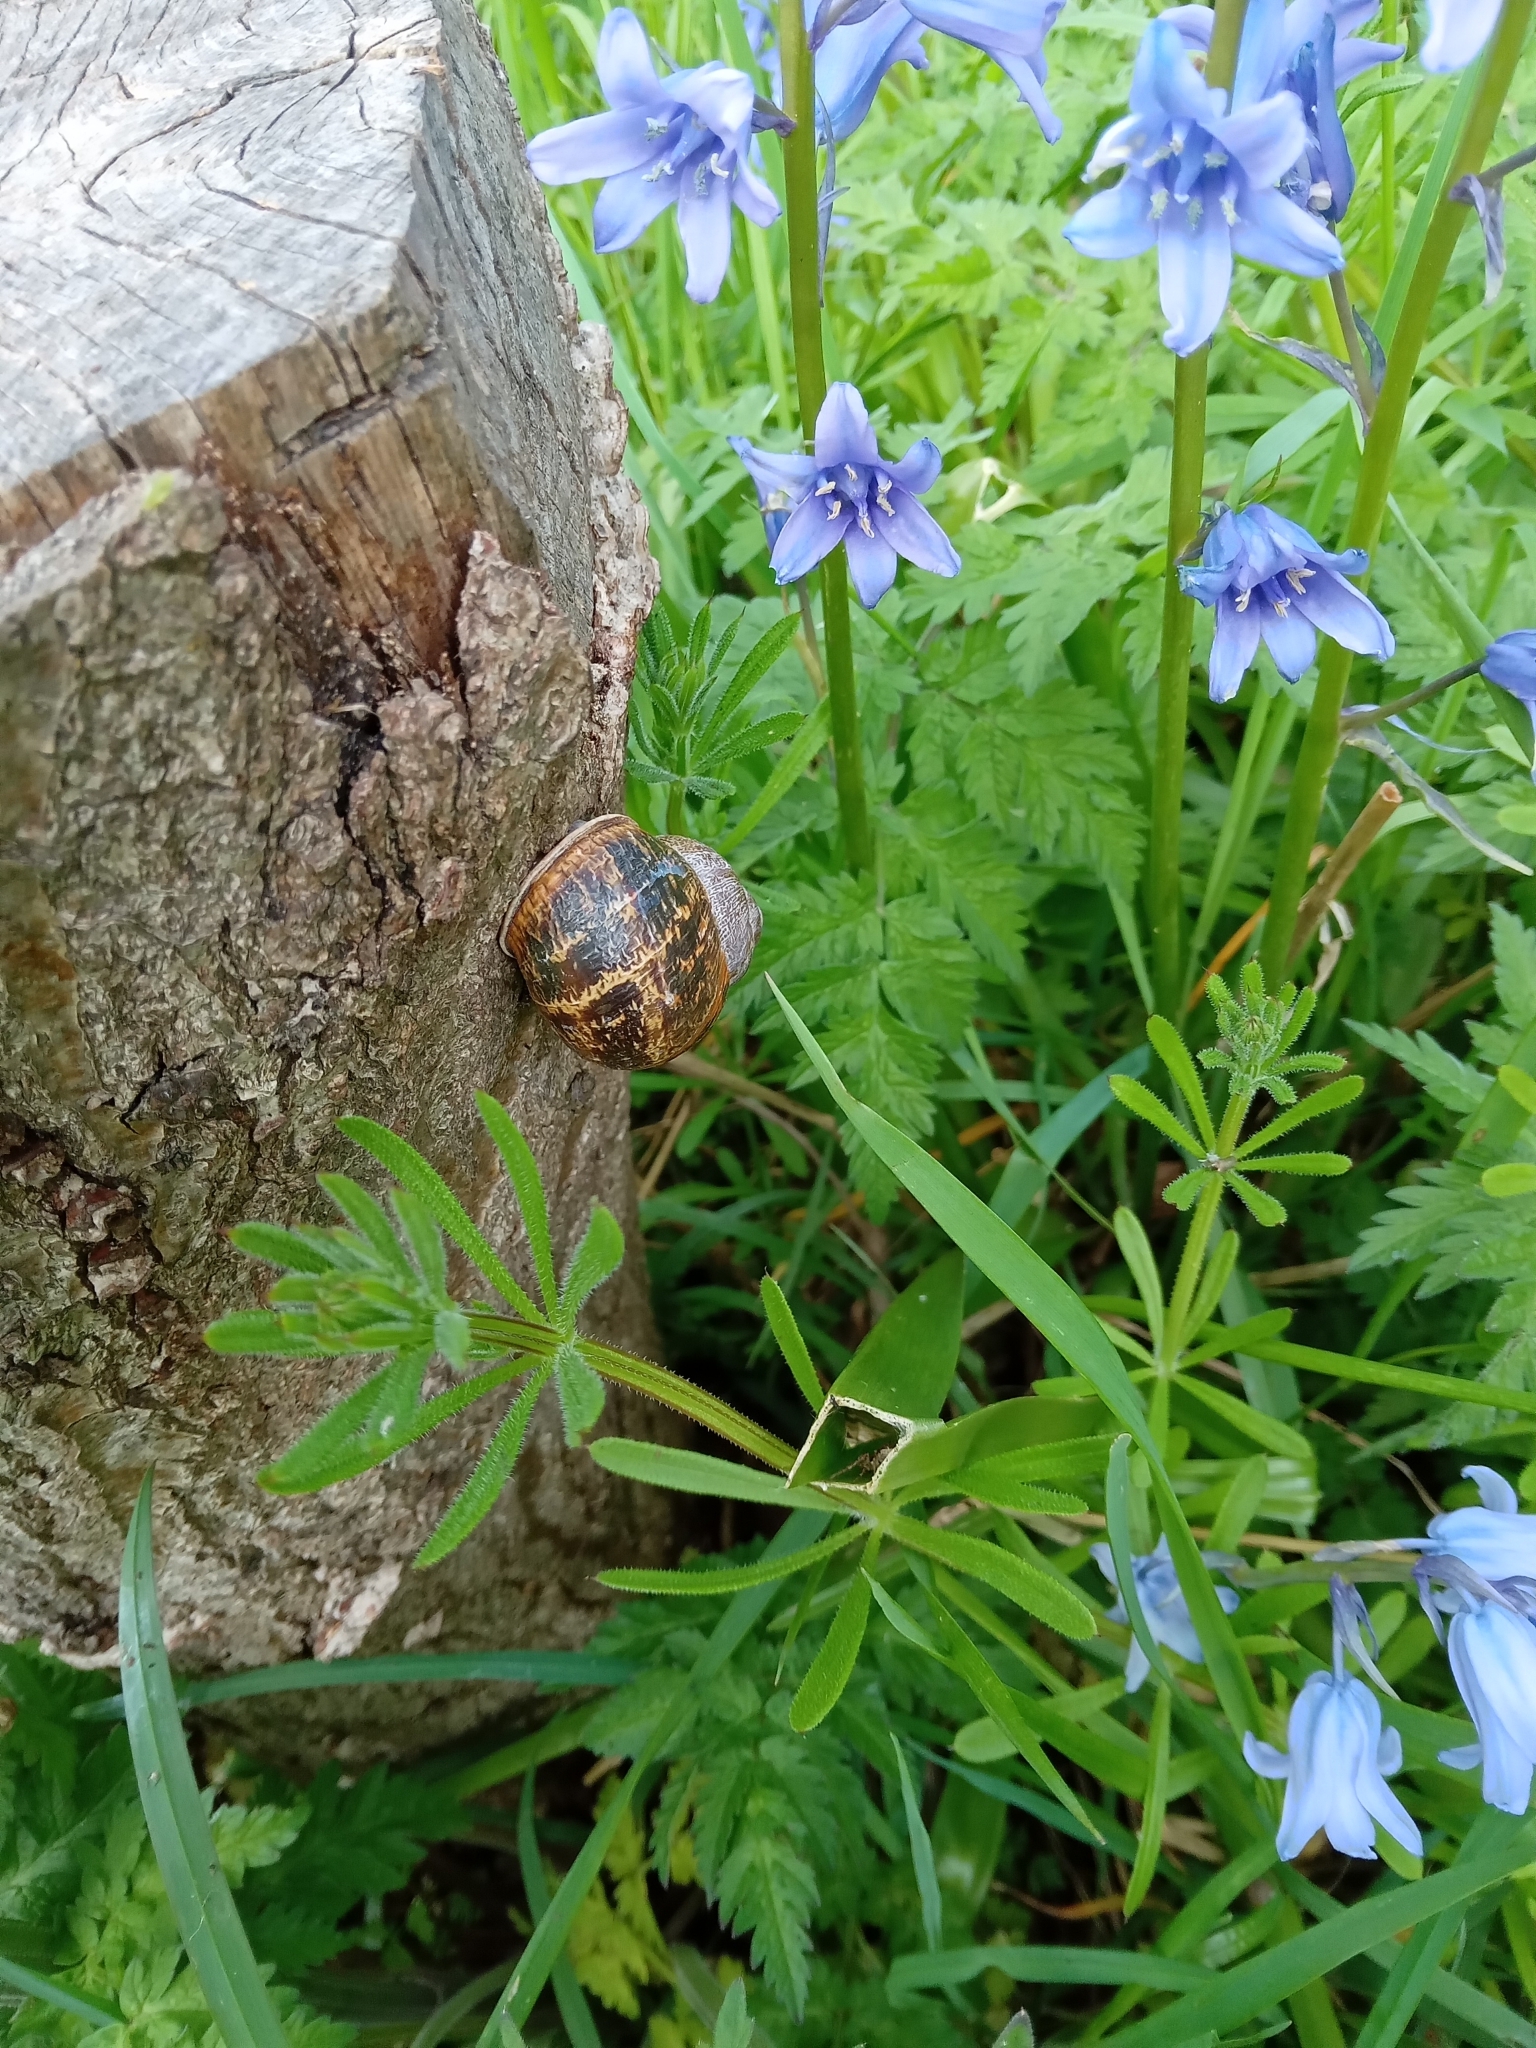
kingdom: Animalia
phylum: Mollusca
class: Gastropoda
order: Stylommatophora
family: Helicidae
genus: Cornu
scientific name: Cornu aspersum
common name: Brown garden snail
